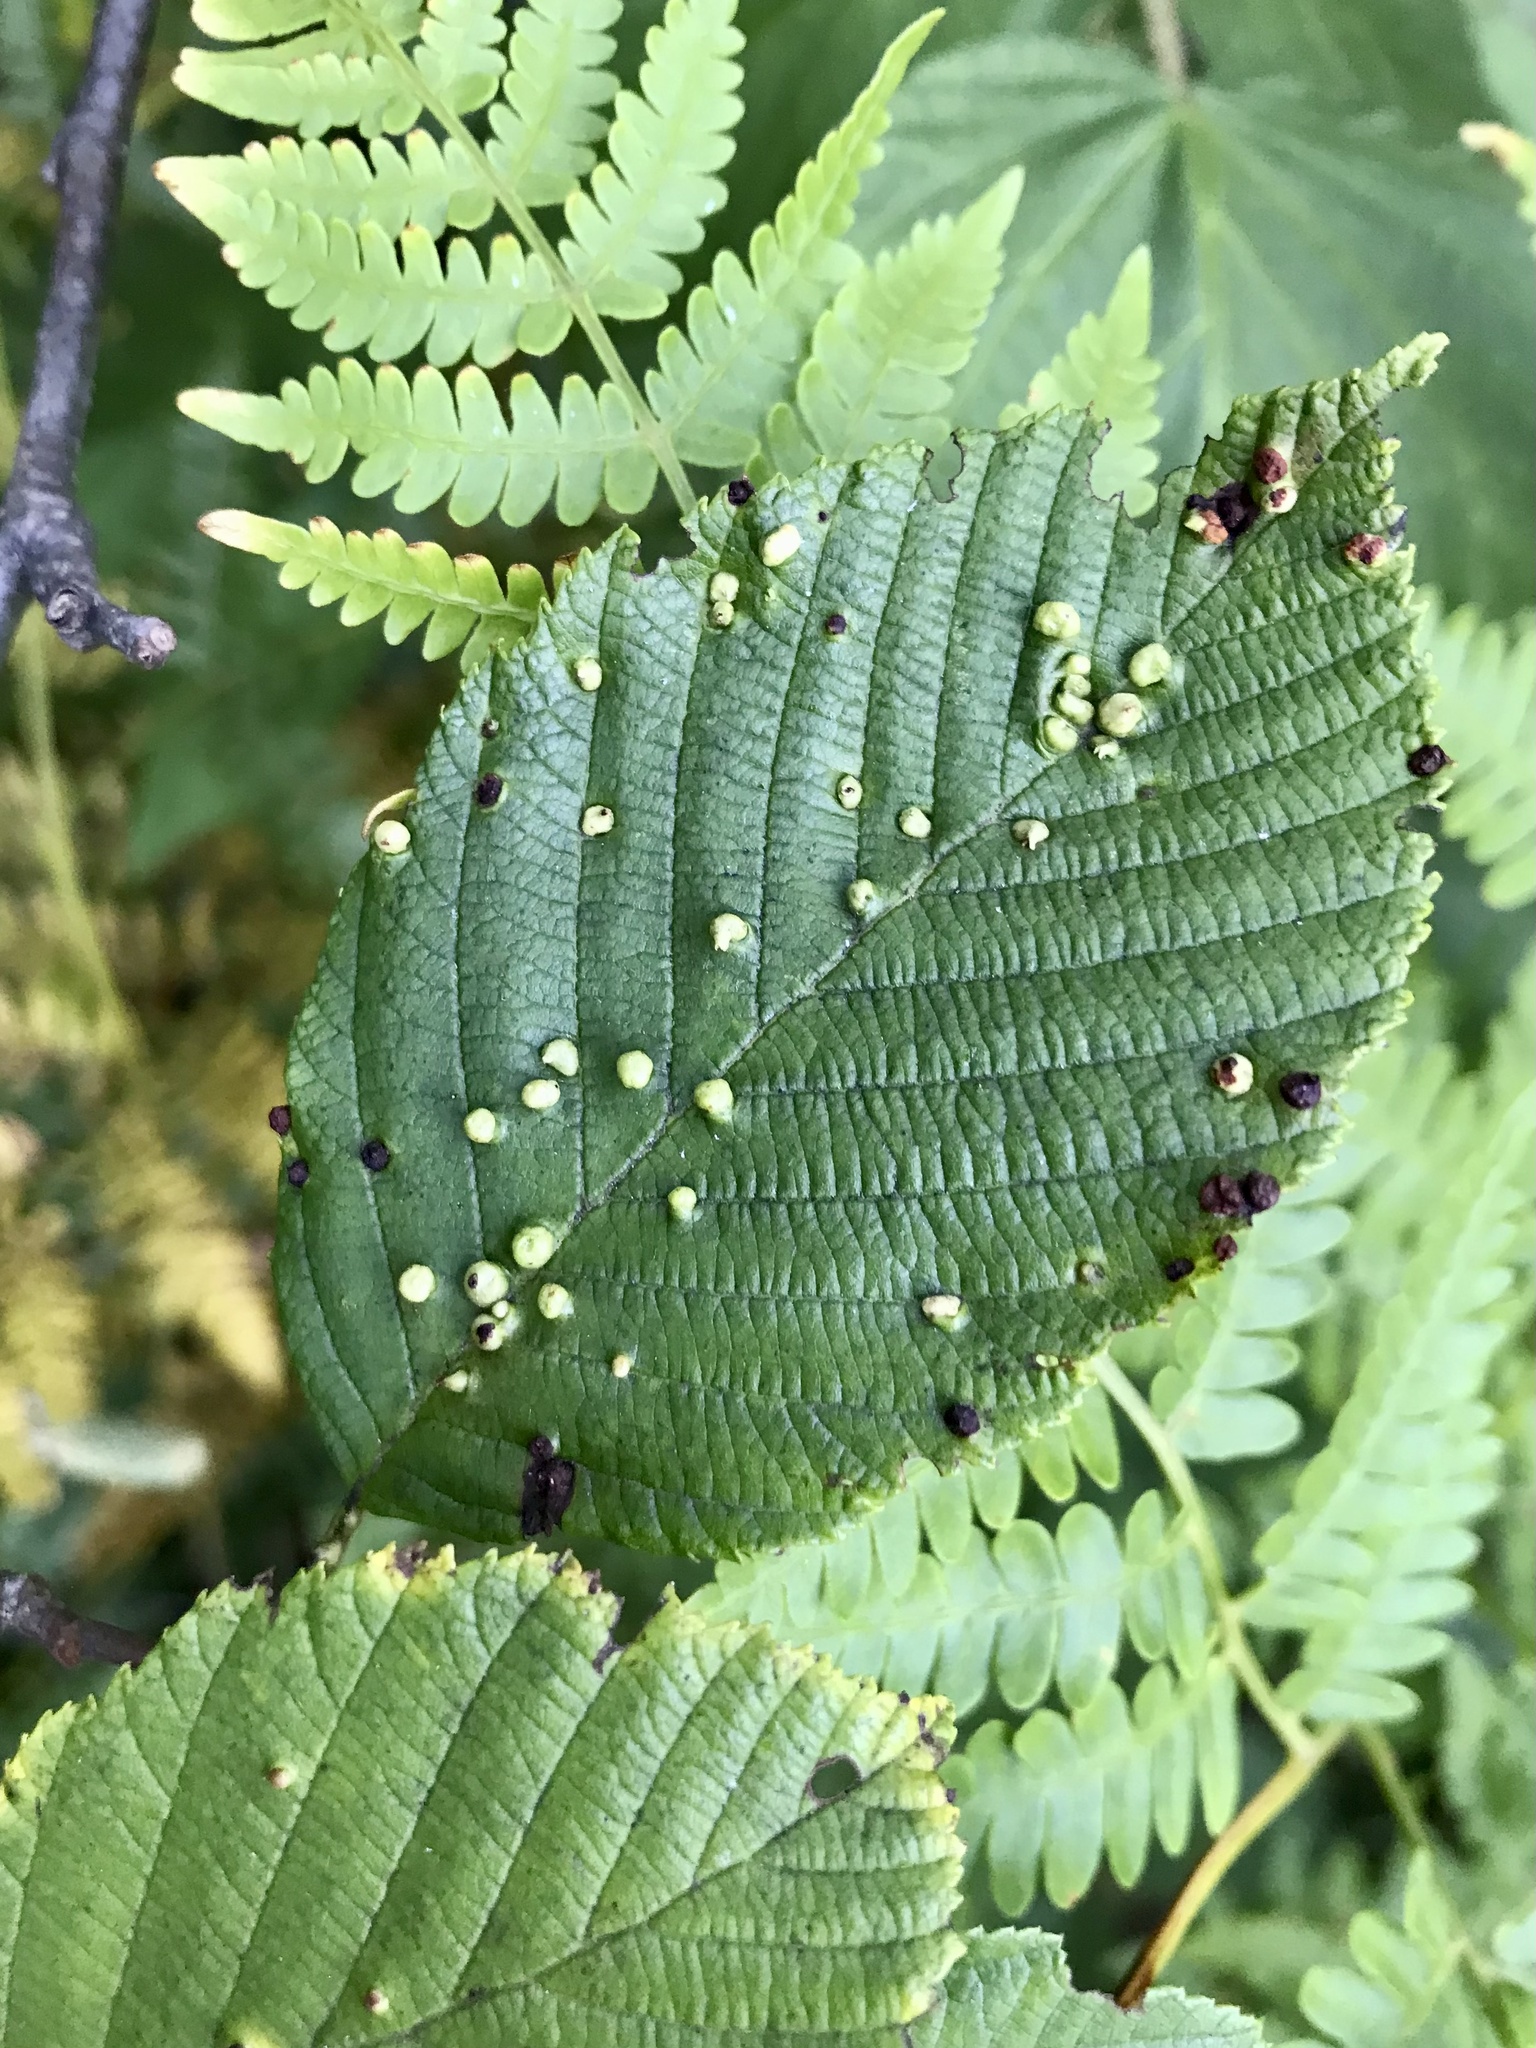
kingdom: Animalia
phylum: Arthropoda
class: Arachnida
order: Trombidiformes
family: Eriophyidae
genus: Eriophyes
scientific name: Eriophyes laevis
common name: Alder leaf gall mite
